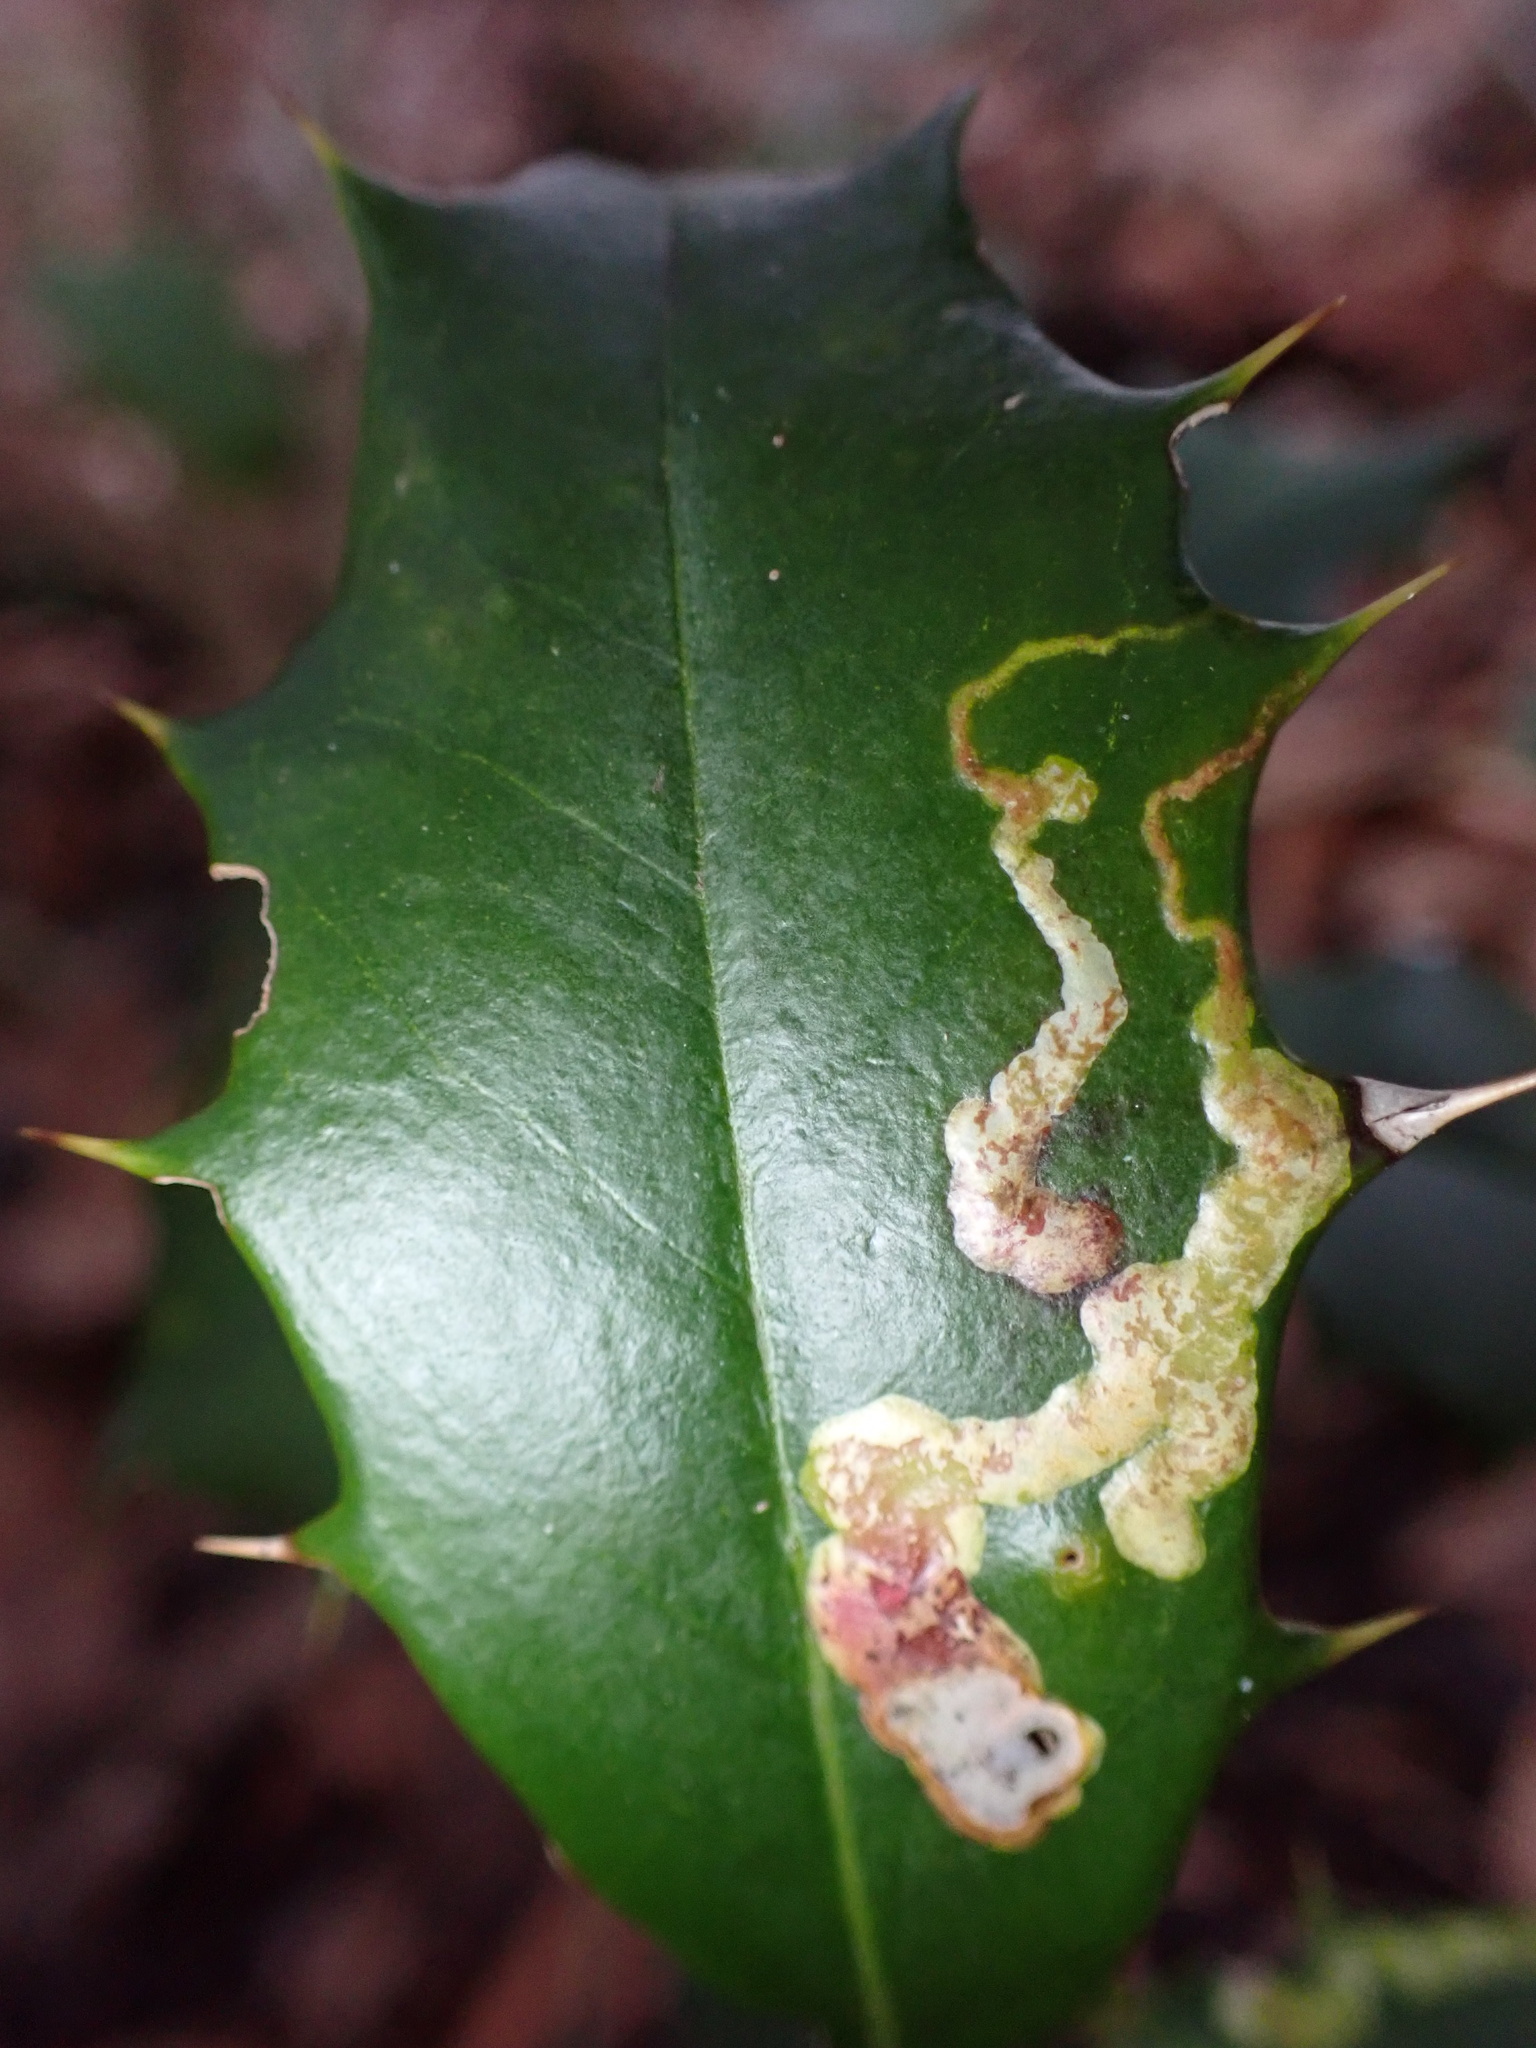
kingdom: Animalia
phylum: Arthropoda
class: Insecta
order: Diptera
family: Agromyzidae
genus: Phytomyza
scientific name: Phytomyza ilicicola
